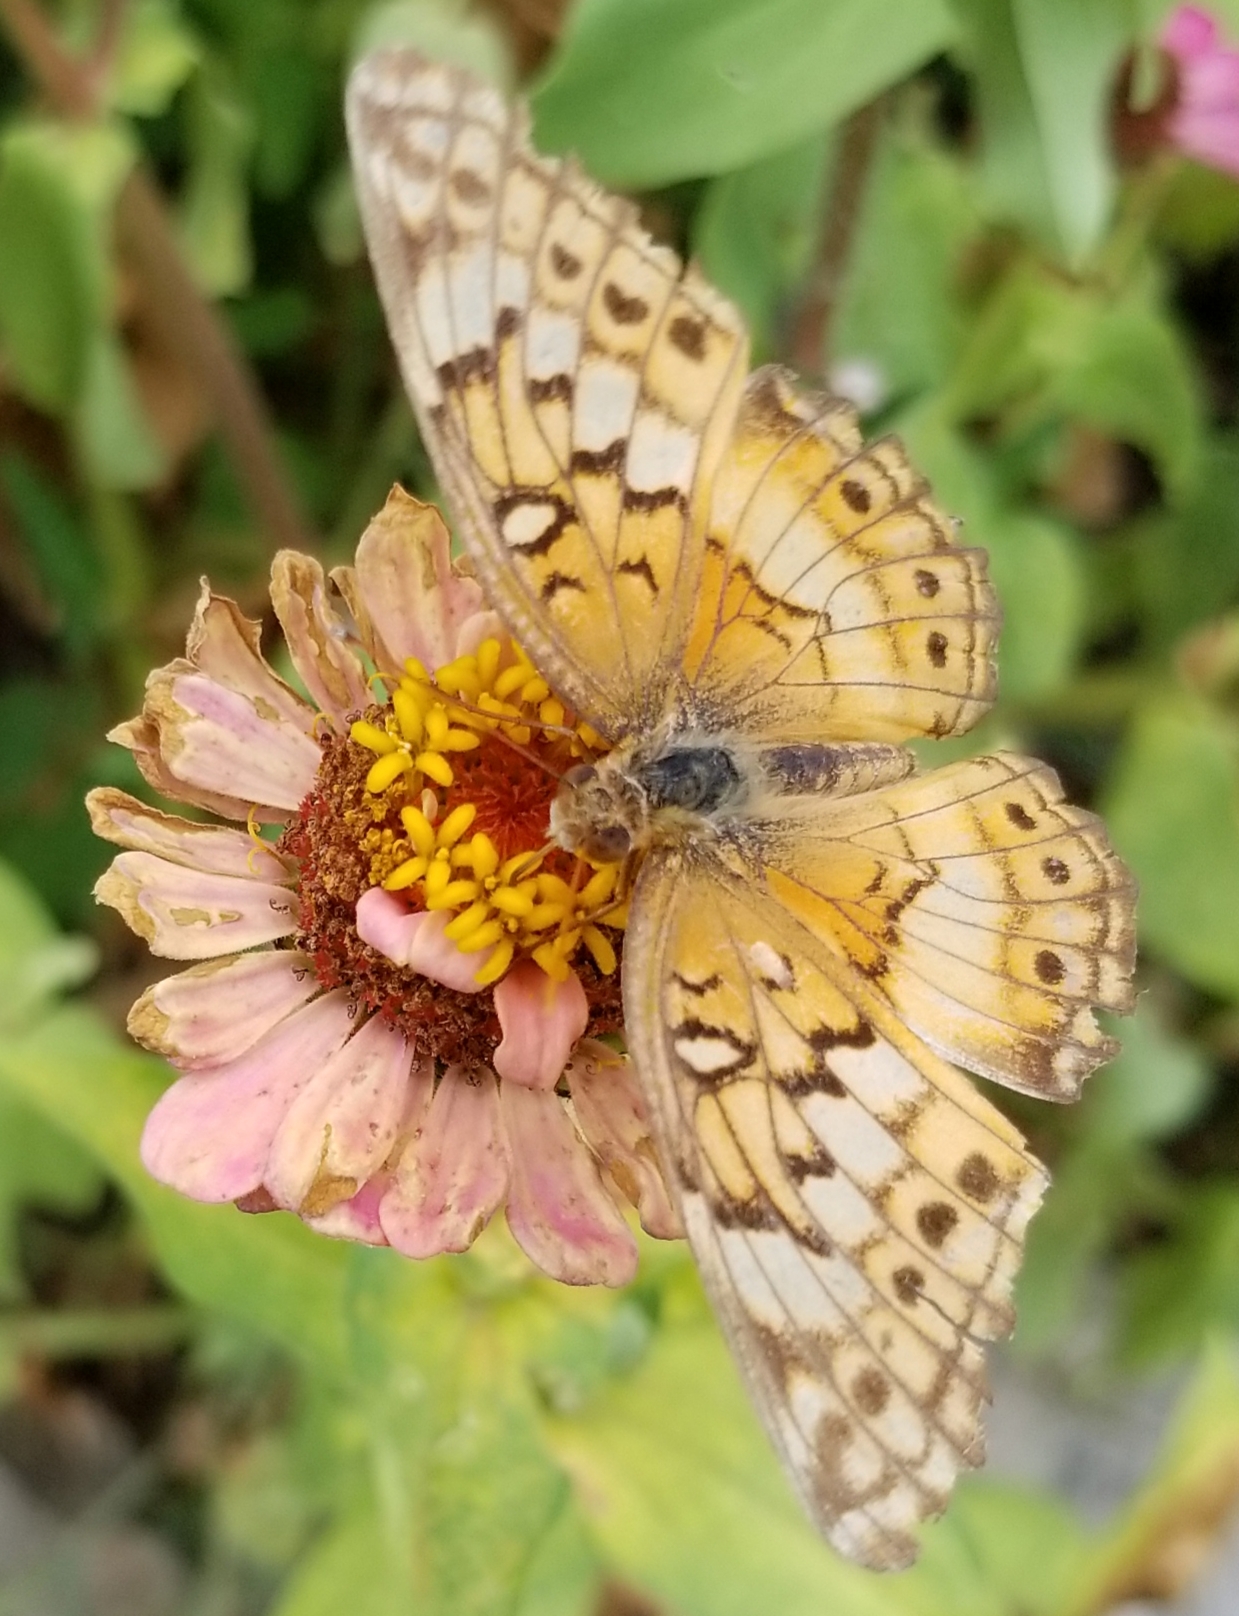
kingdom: Animalia
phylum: Arthropoda
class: Insecta
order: Lepidoptera
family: Nymphalidae
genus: Euptoieta
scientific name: Euptoieta claudia
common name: Variegated fritillary
